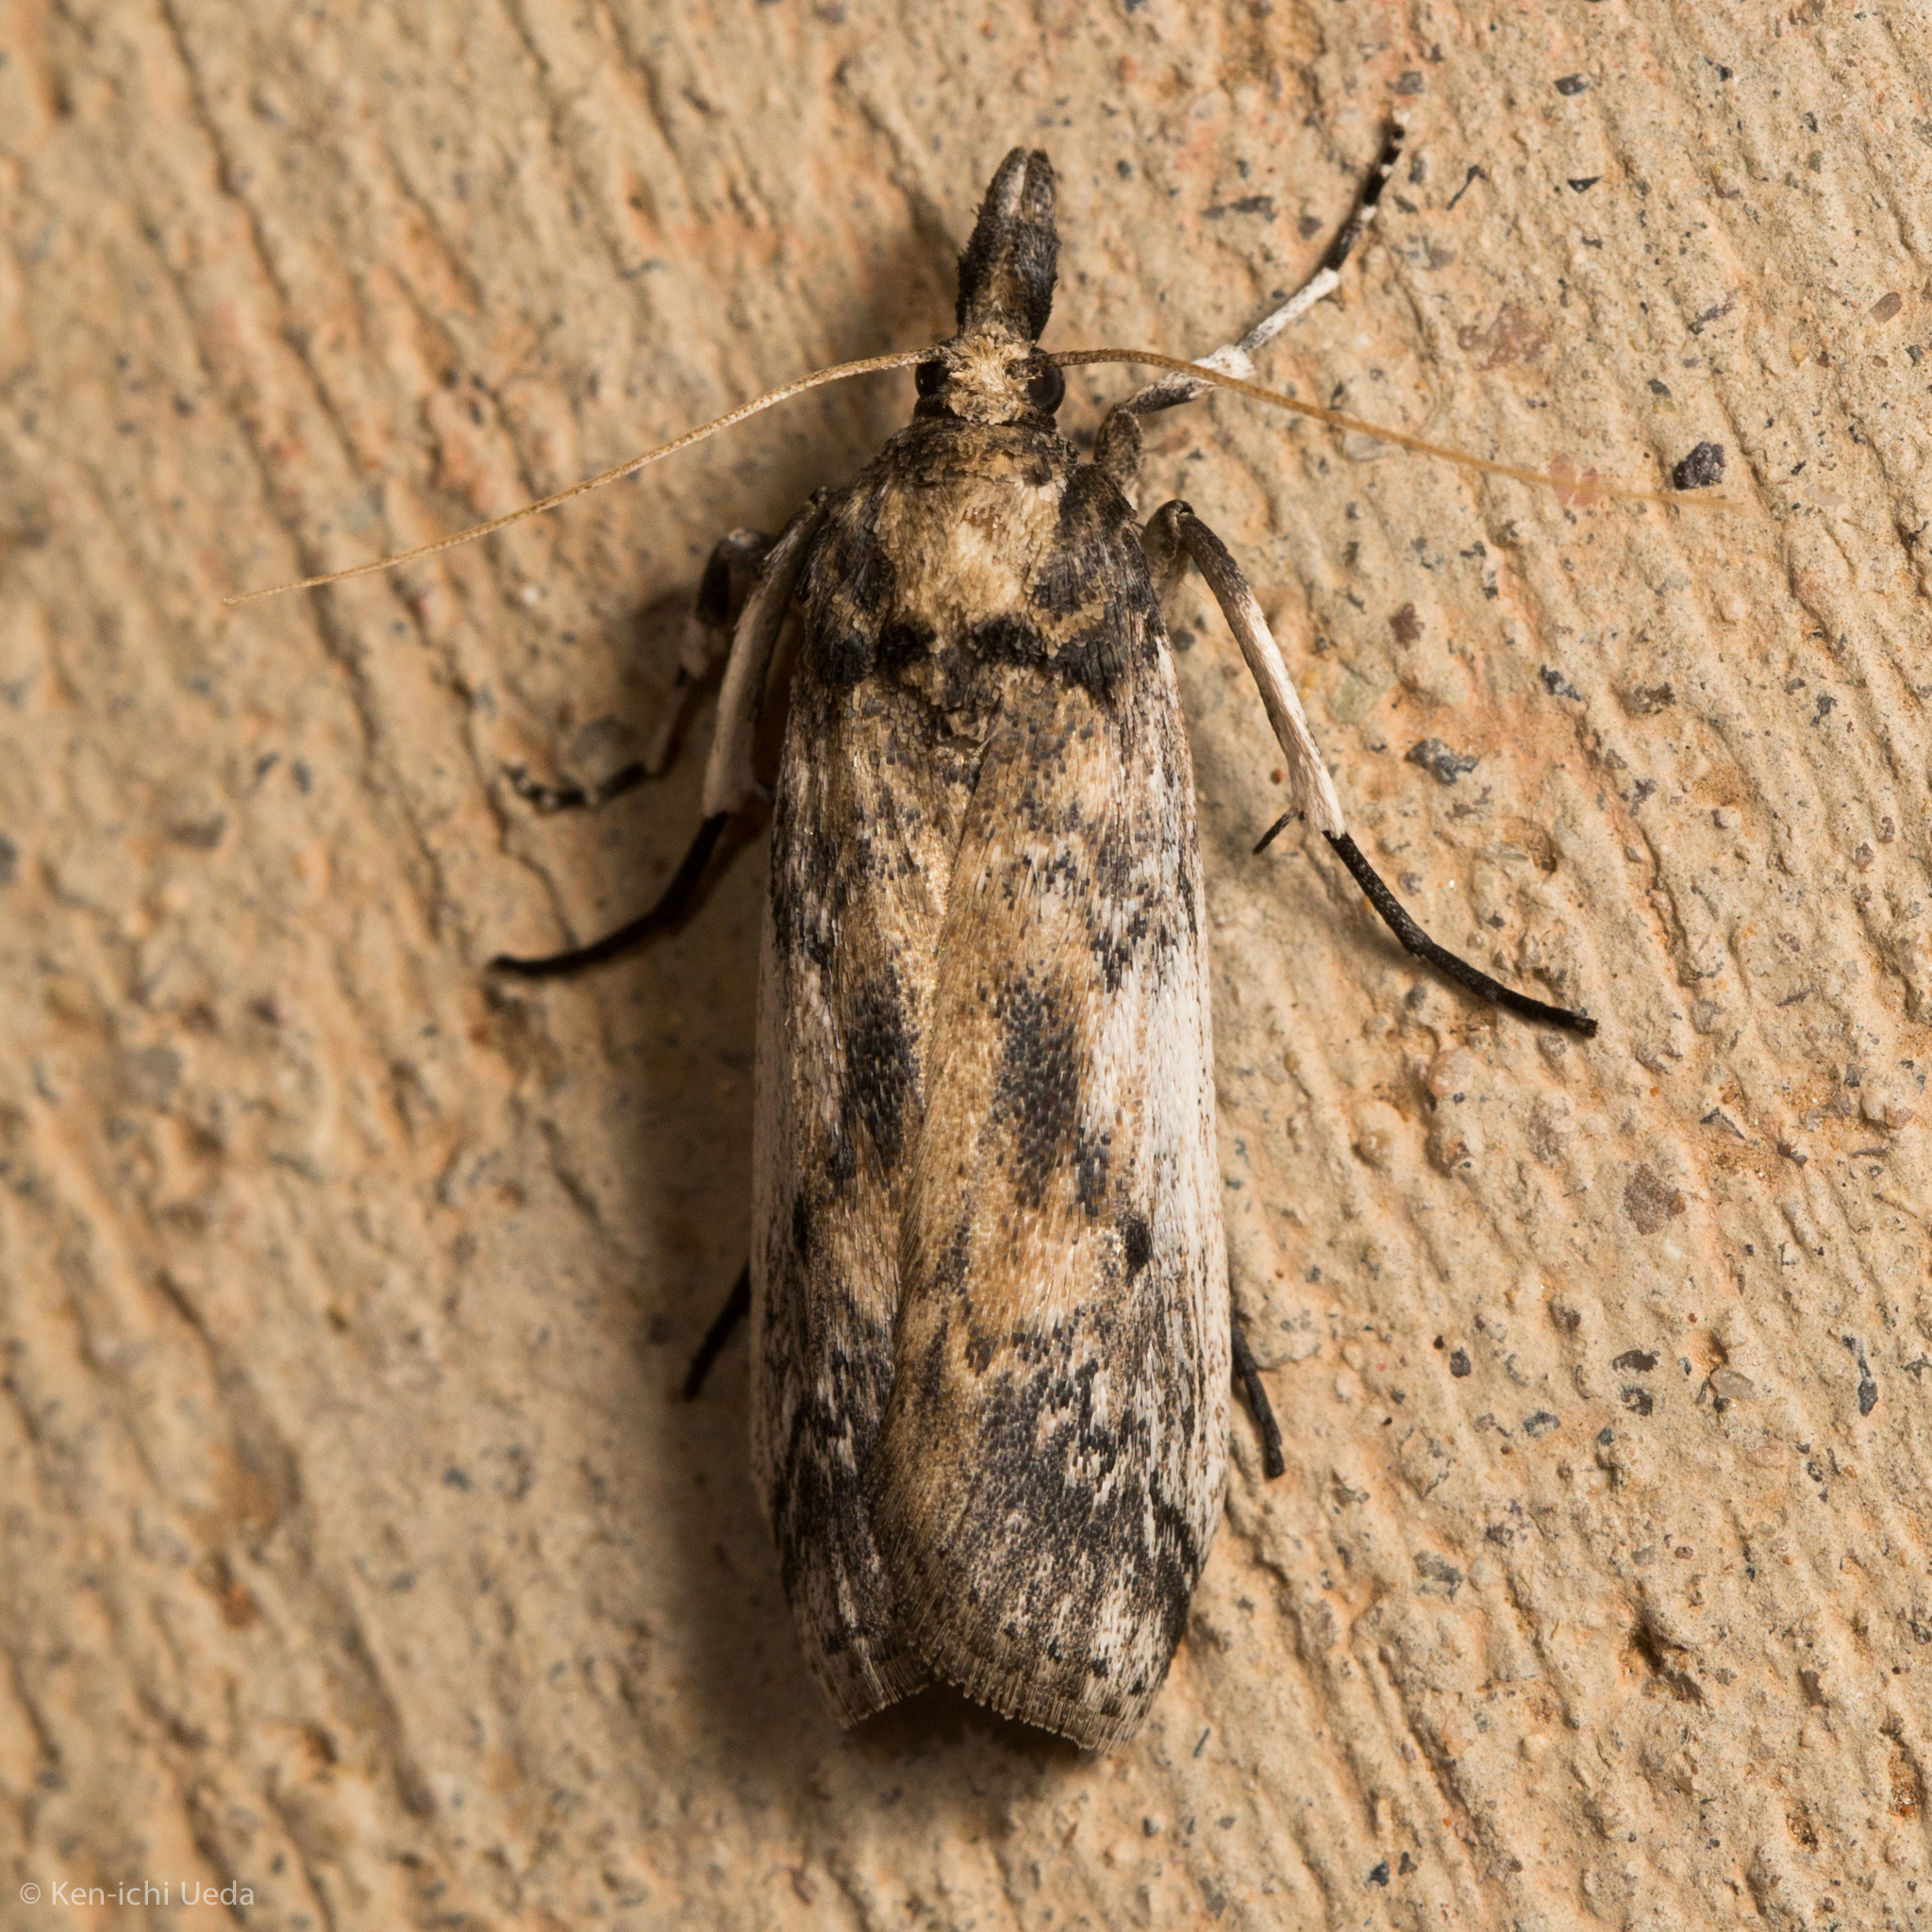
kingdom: Animalia
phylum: Arthropoda
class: Insecta
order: Lepidoptera
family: Pyralidae
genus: Zophodia
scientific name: Zophodia Alberada franclemonti
